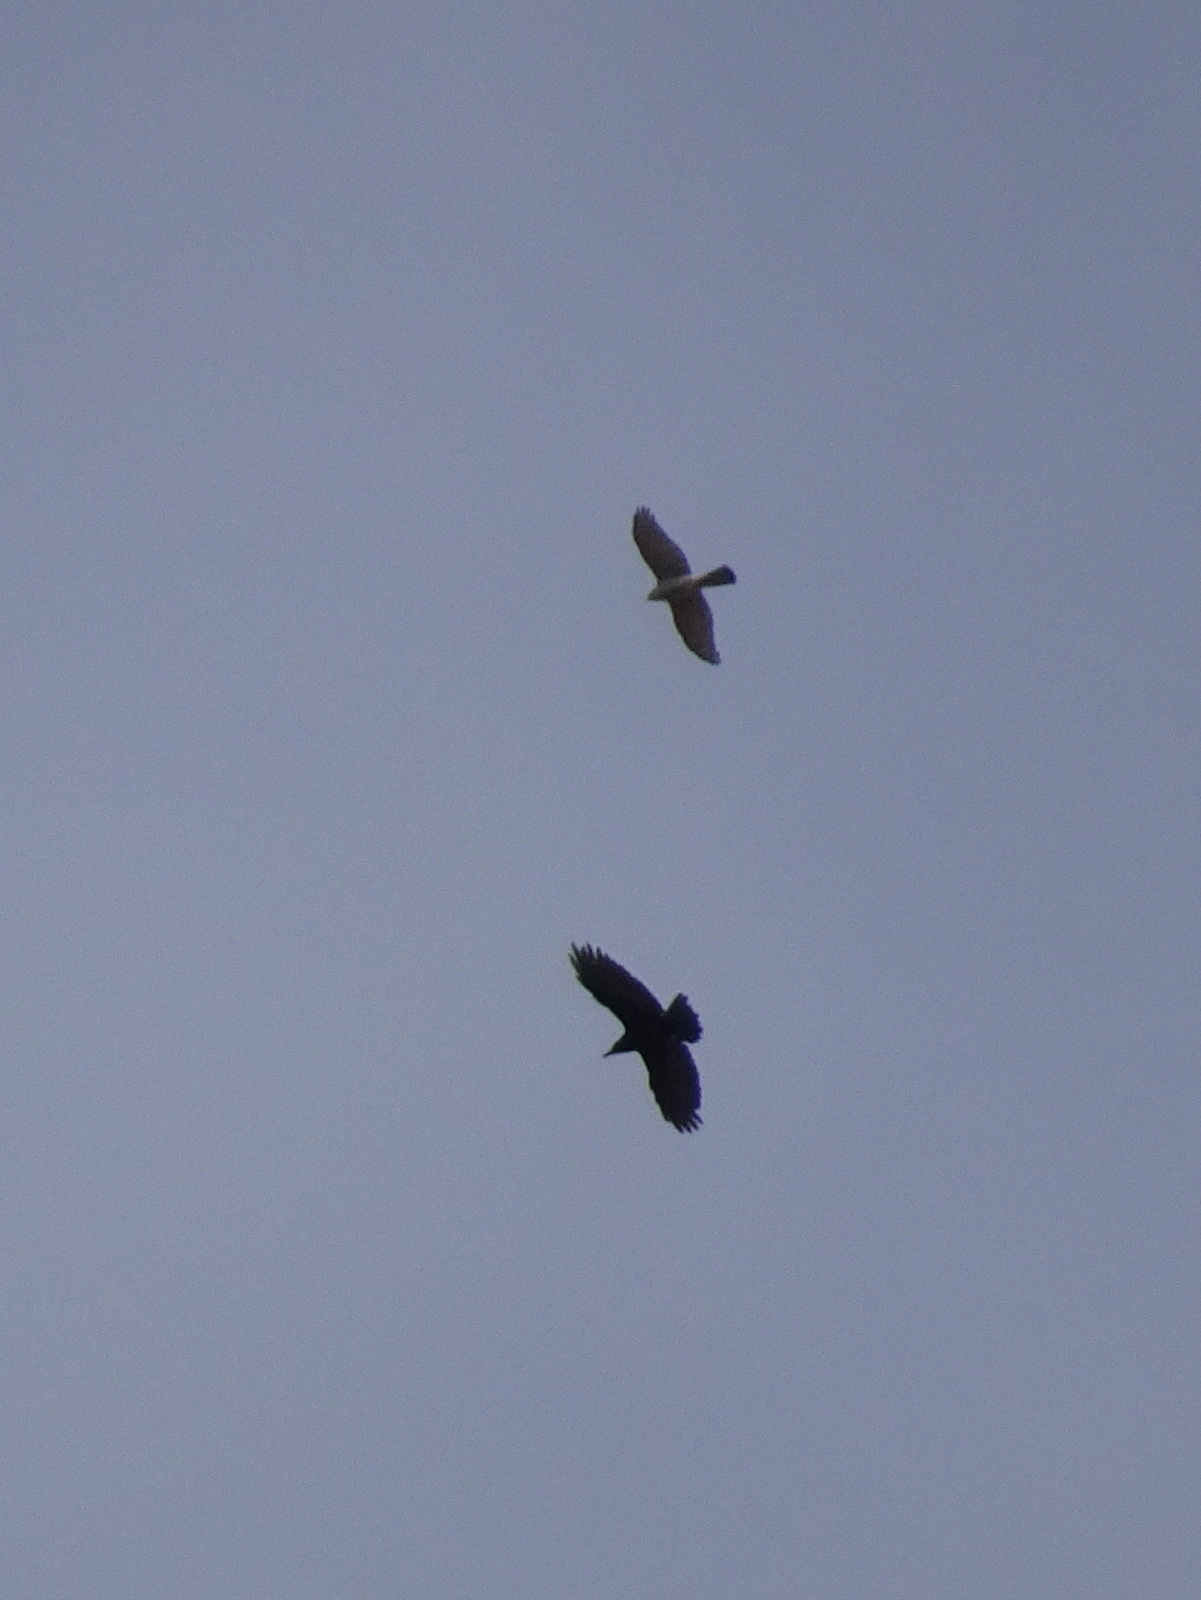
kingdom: Animalia
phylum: Chordata
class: Aves
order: Accipitriformes
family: Accipitridae
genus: Accipiter
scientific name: Accipiter nisus
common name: Eurasian sparrowhawk
